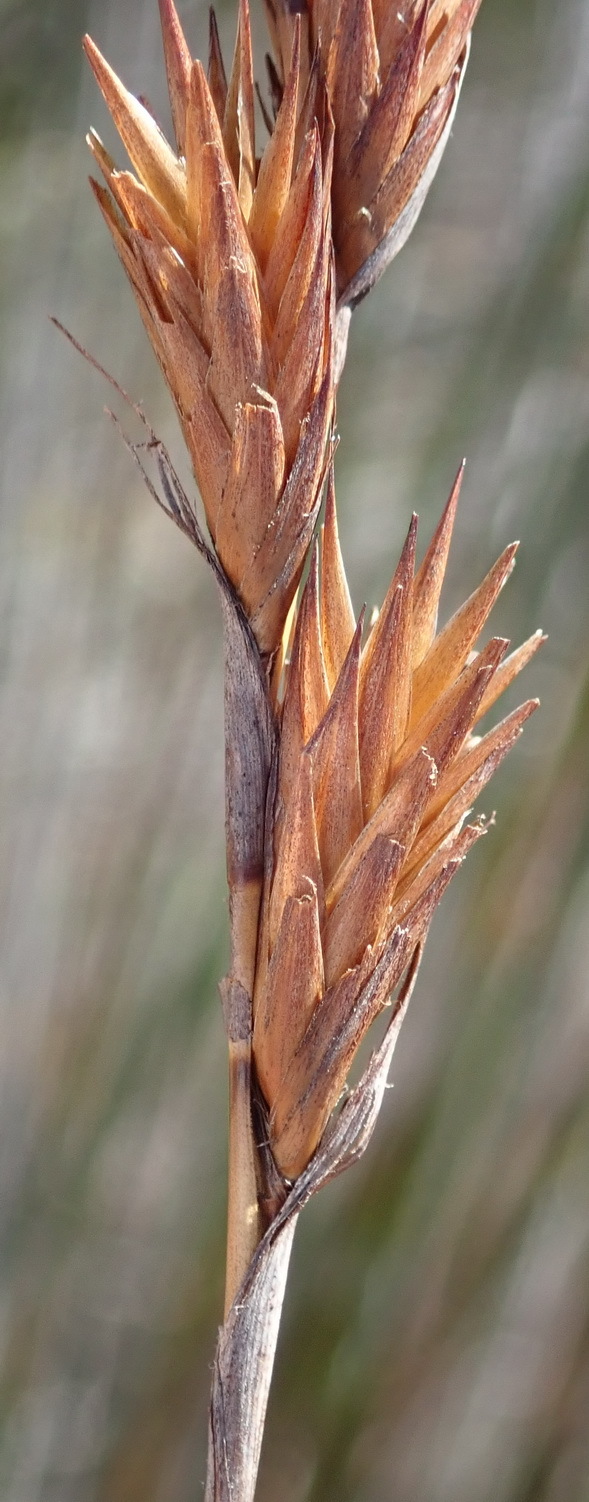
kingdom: Plantae
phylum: Tracheophyta
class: Liliopsida
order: Poales
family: Restionaceae
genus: Thamnochortus
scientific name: Thamnochortus insignis
